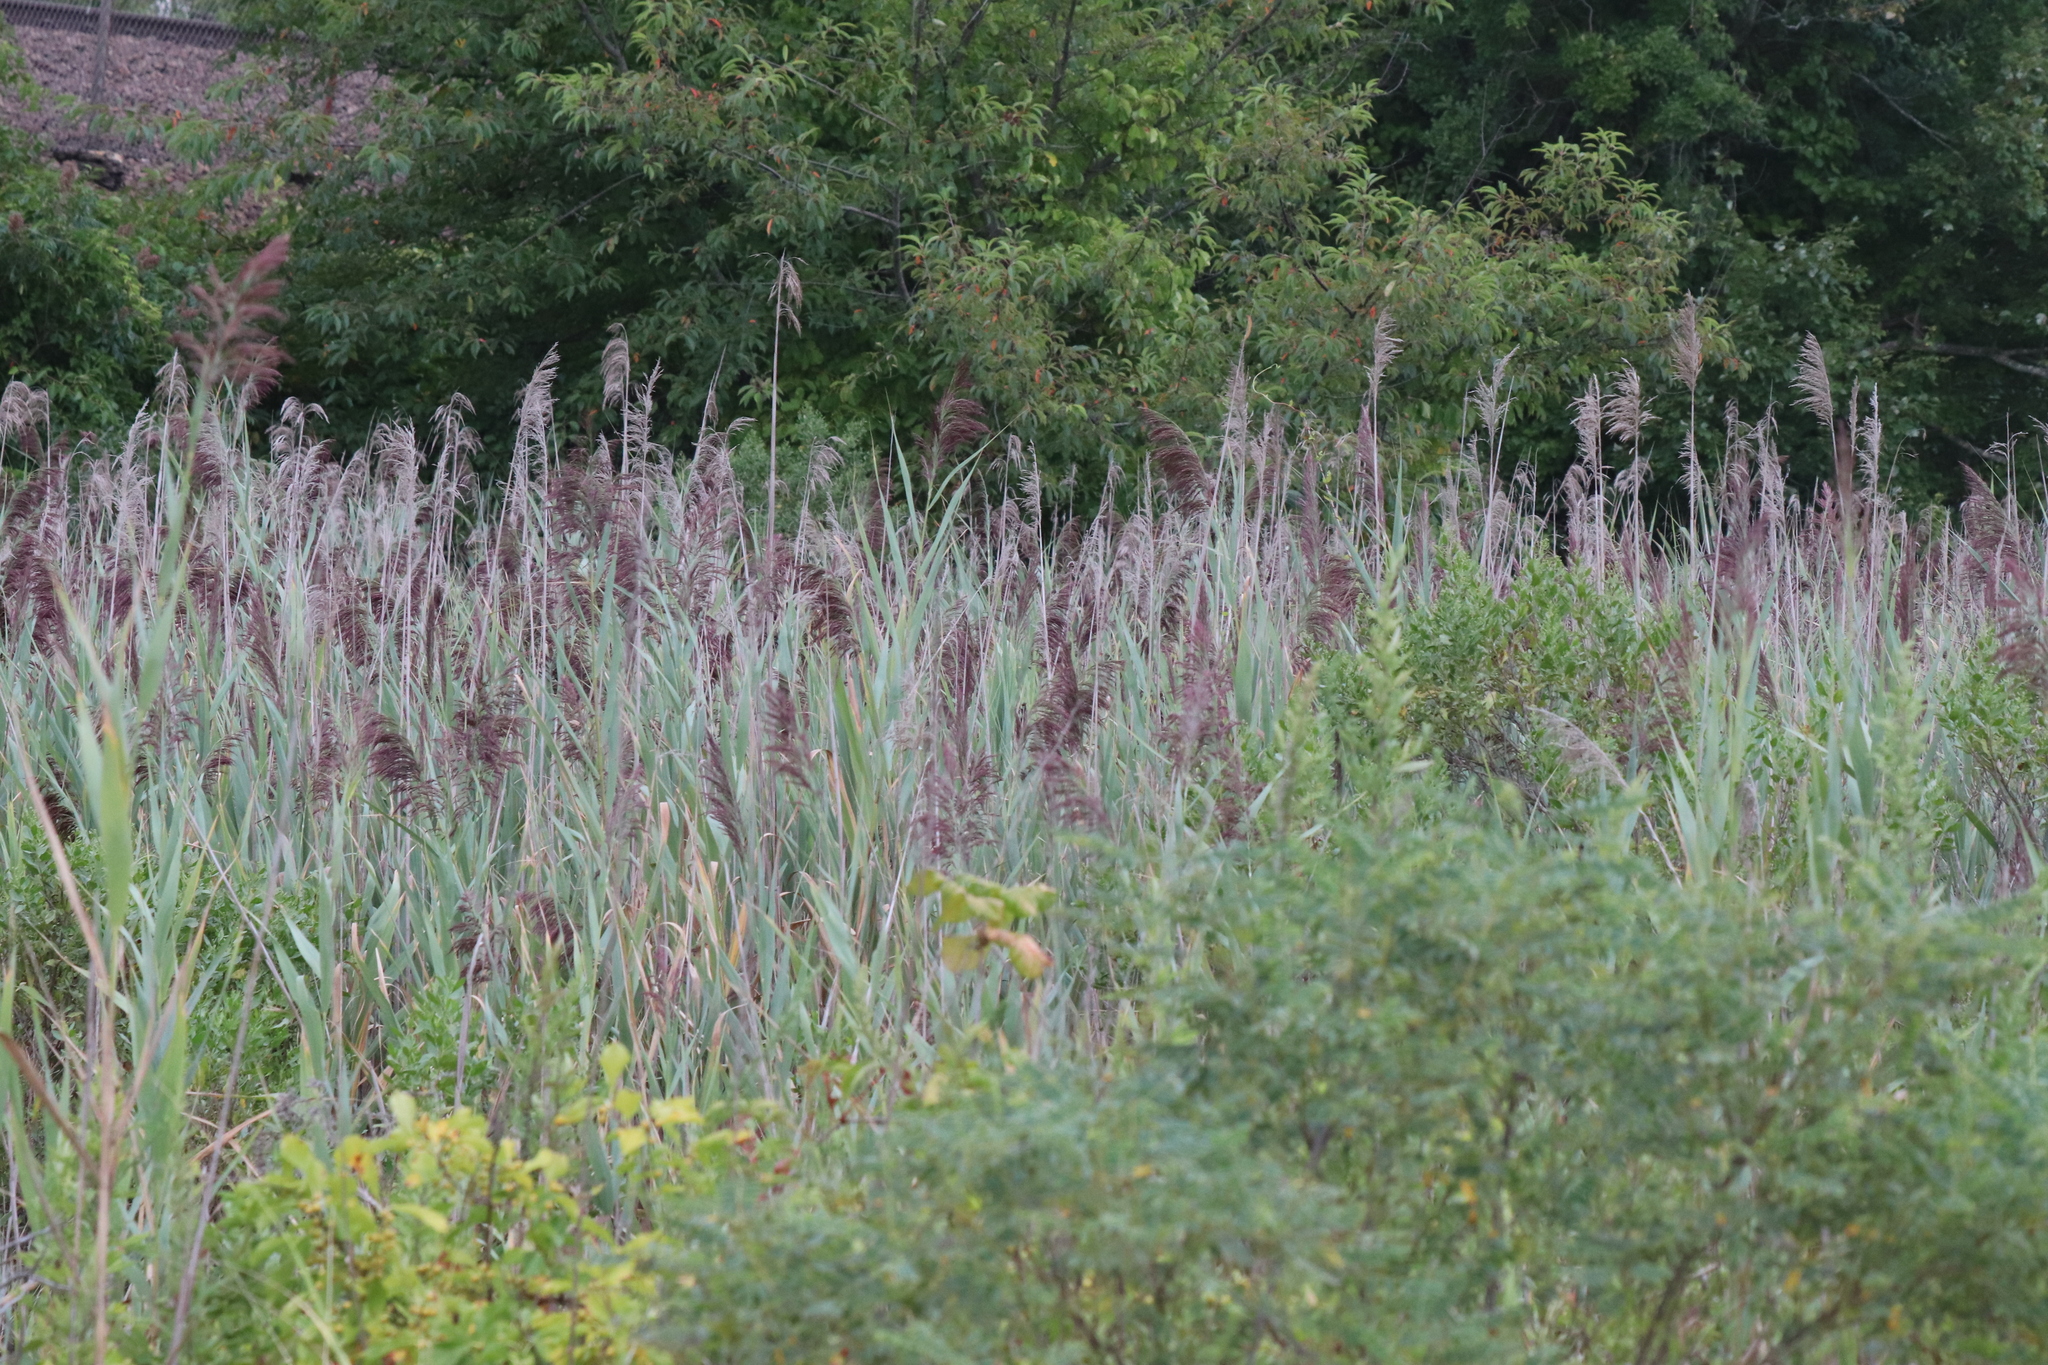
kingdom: Plantae
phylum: Tracheophyta
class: Liliopsida
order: Poales
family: Poaceae
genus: Phragmites
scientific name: Phragmites australis
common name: Common reed
